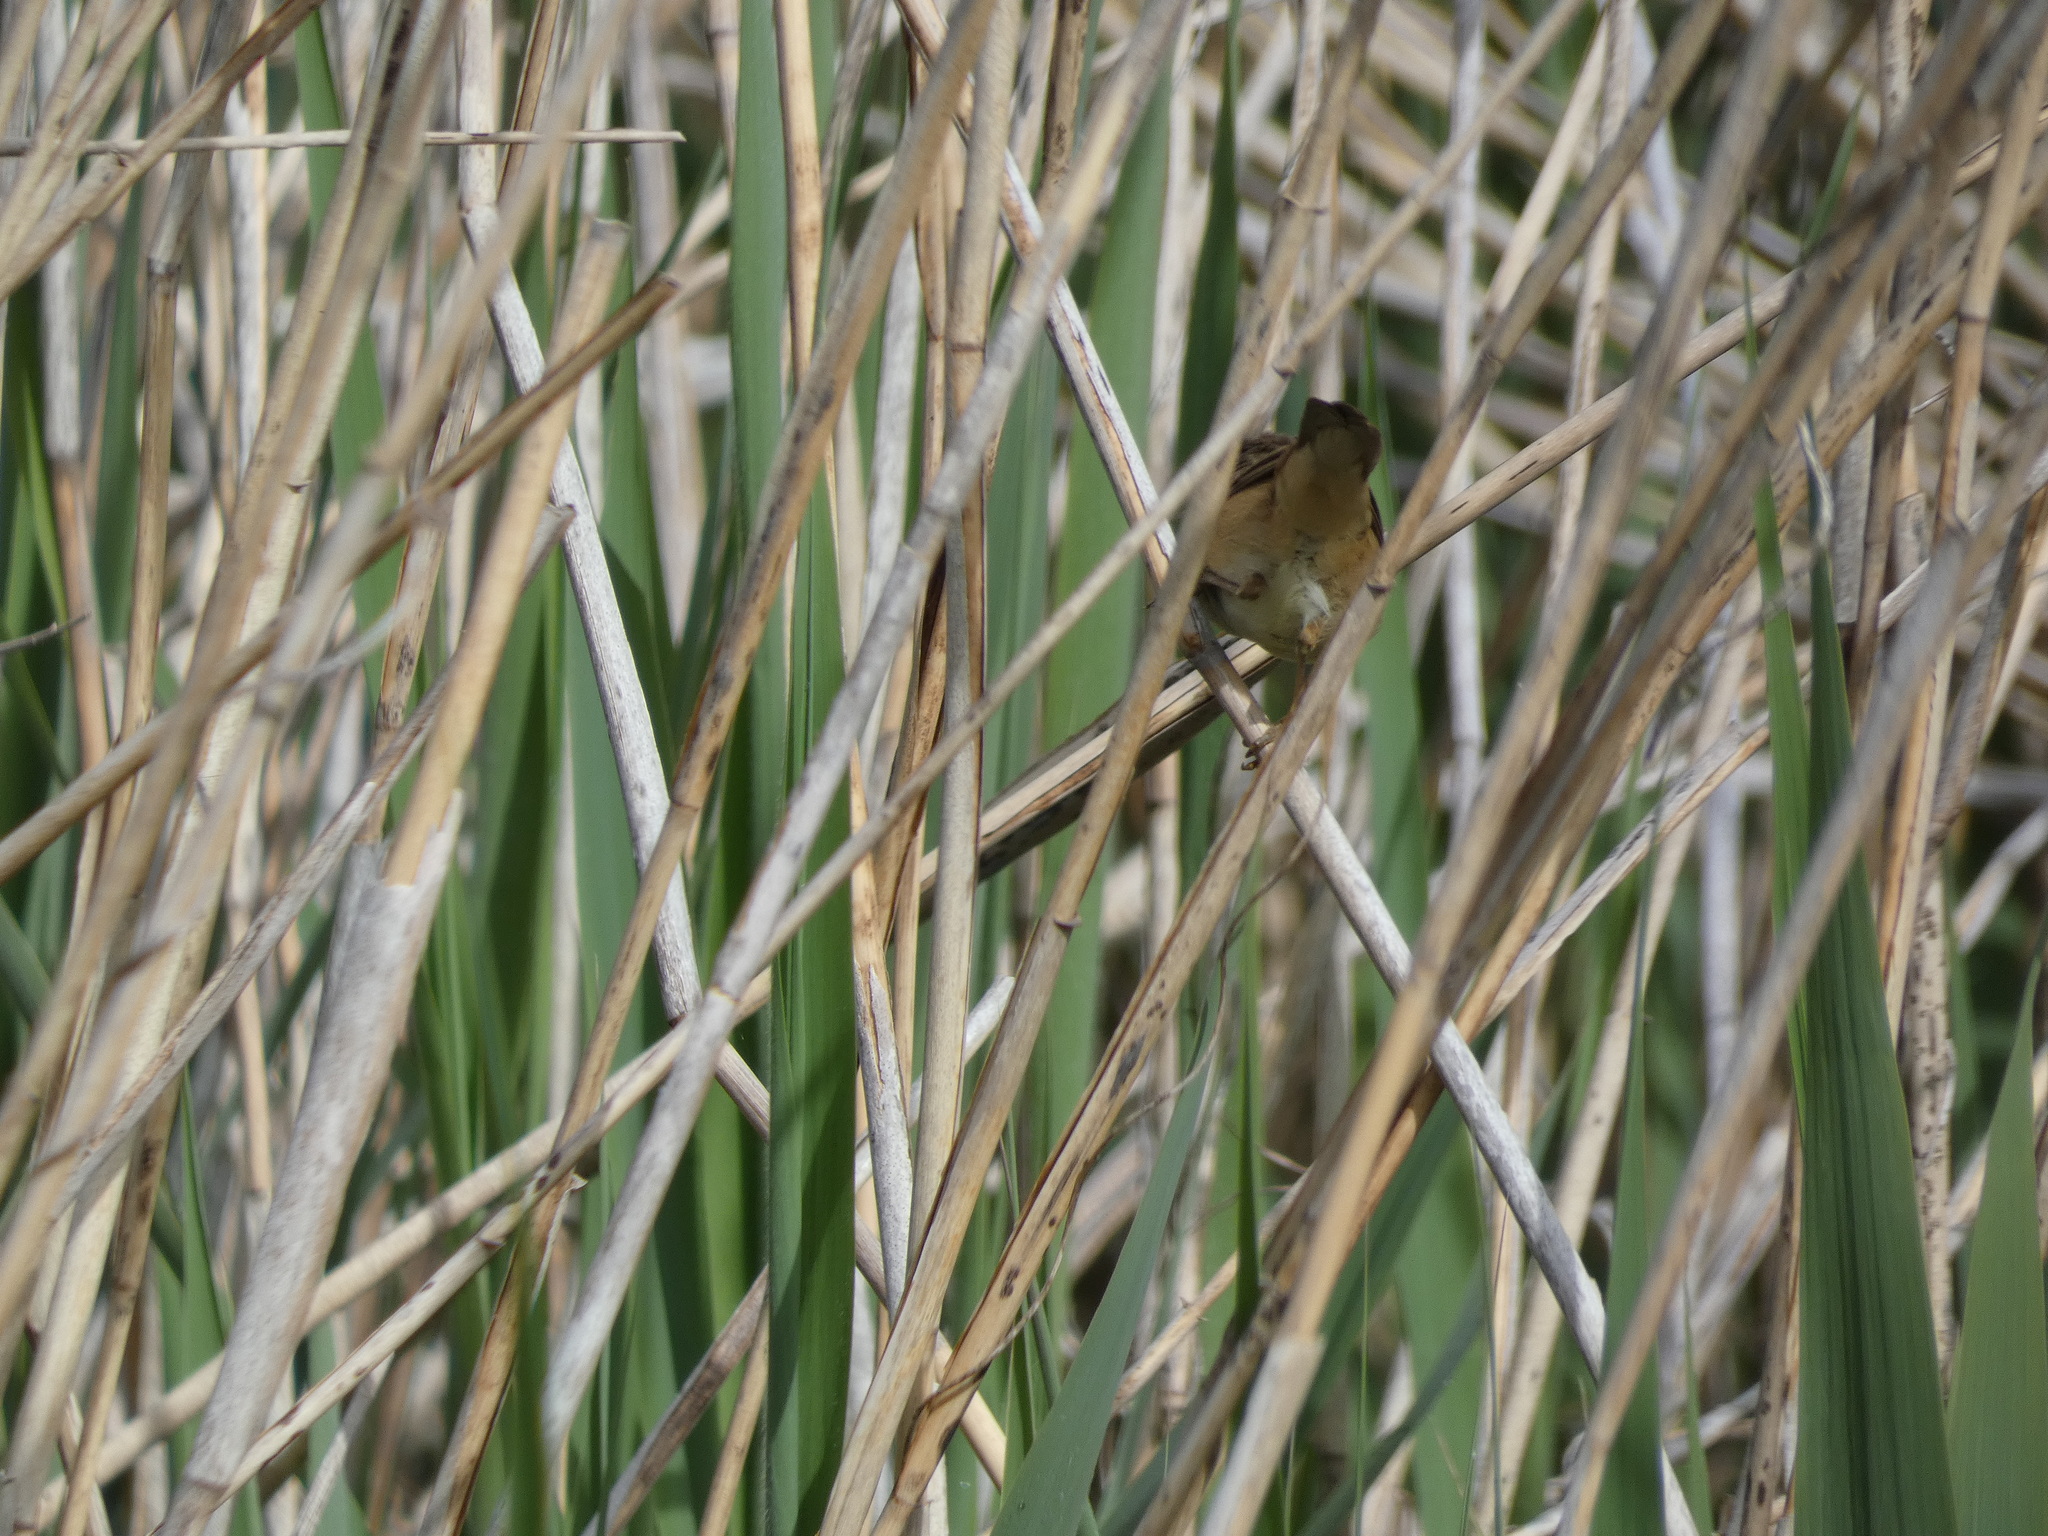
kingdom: Animalia
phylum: Chordata
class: Aves
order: Passeriformes
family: Acrocephalidae
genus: Acrocephalus
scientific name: Acrocephalus scirpaceus
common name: Eurasian reed warbler
